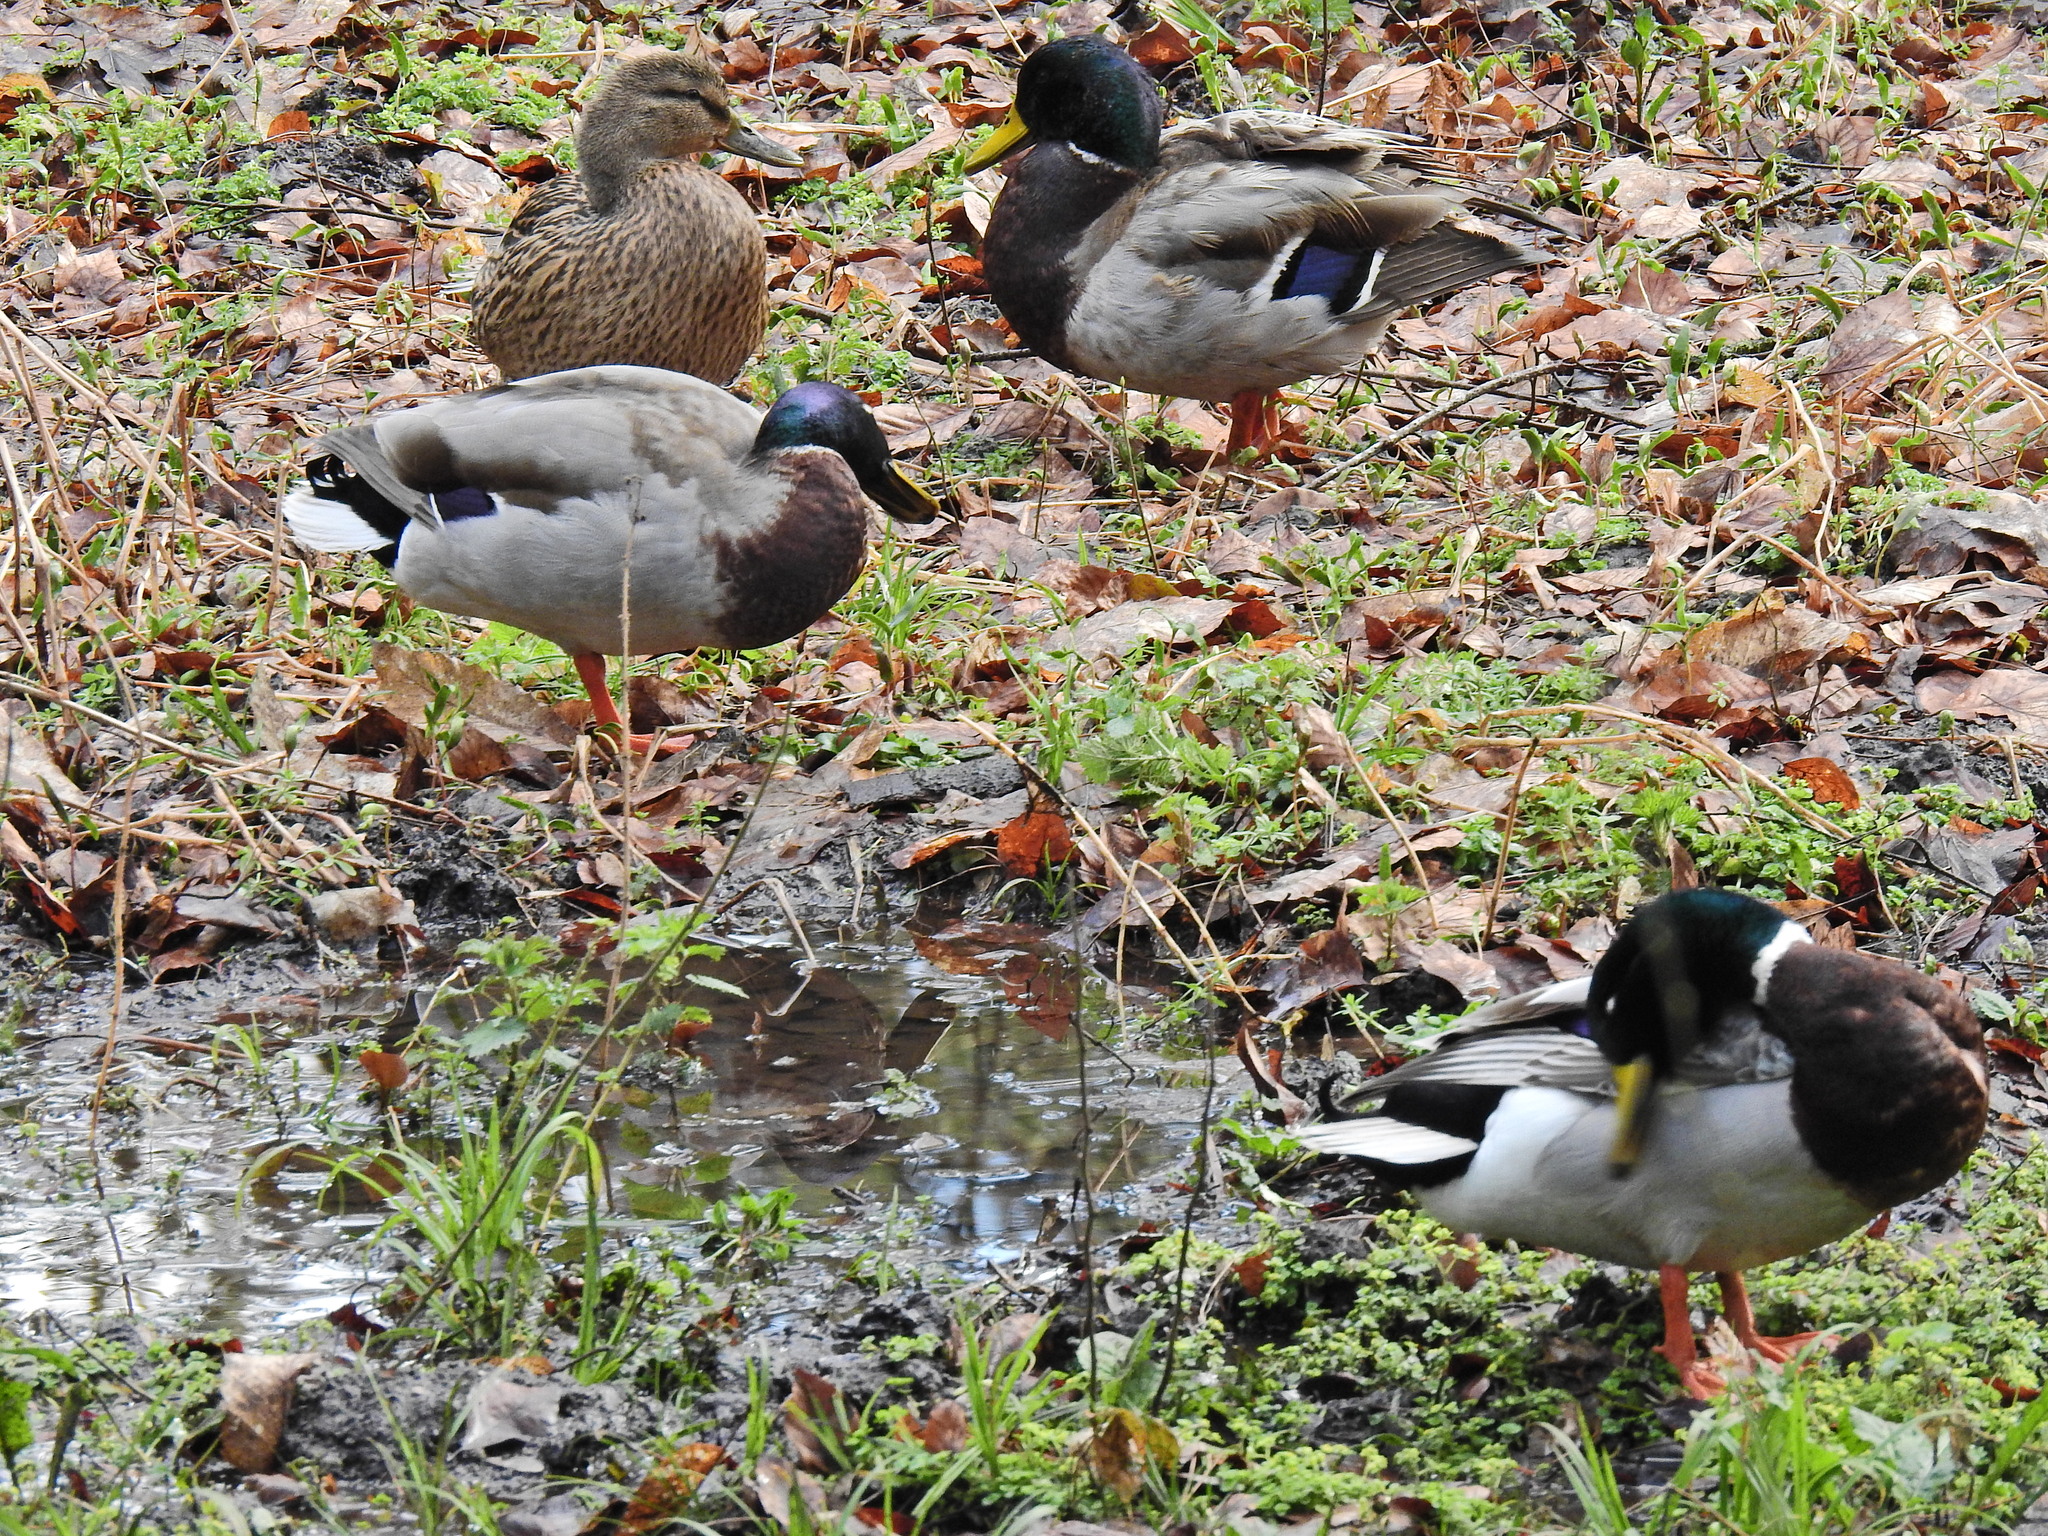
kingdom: Animalia
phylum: Chordata
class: Aves
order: Anseriformes
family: Anatidae
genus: Anas
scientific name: Anas platyrhynchos
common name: Mallard
